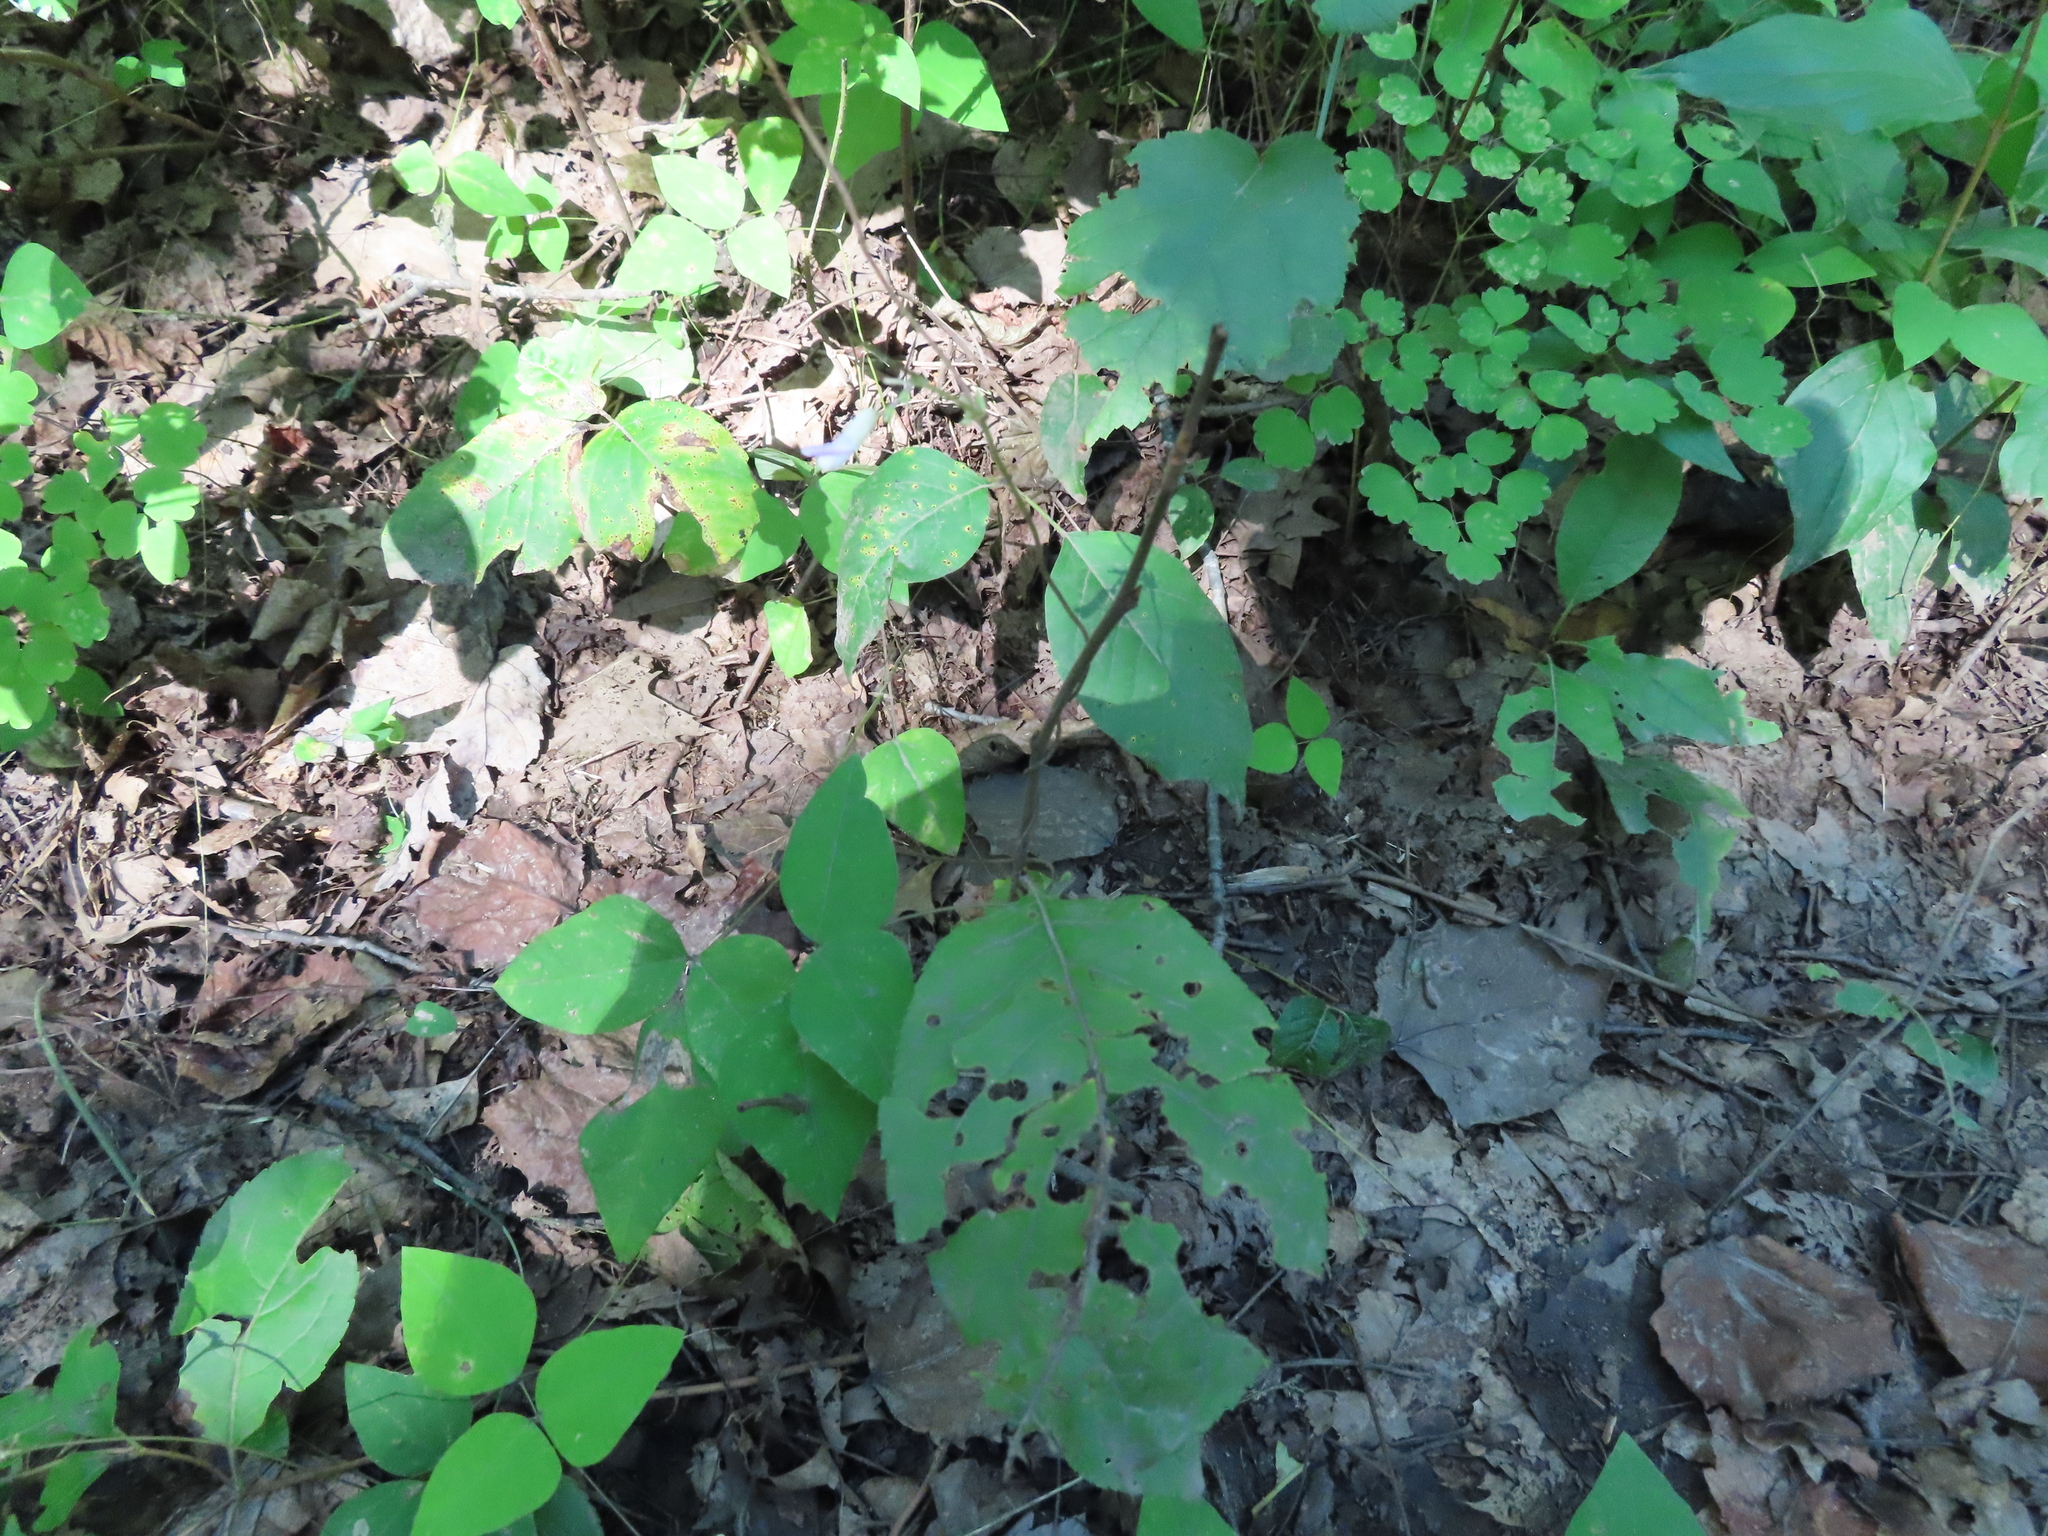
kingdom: Plantae
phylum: Tracheophyta
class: Magnoliopsida
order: Fabales
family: Fabaceae
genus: Amphicarpaea
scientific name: Amphicarpaea bracteata
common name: American hog peanut
